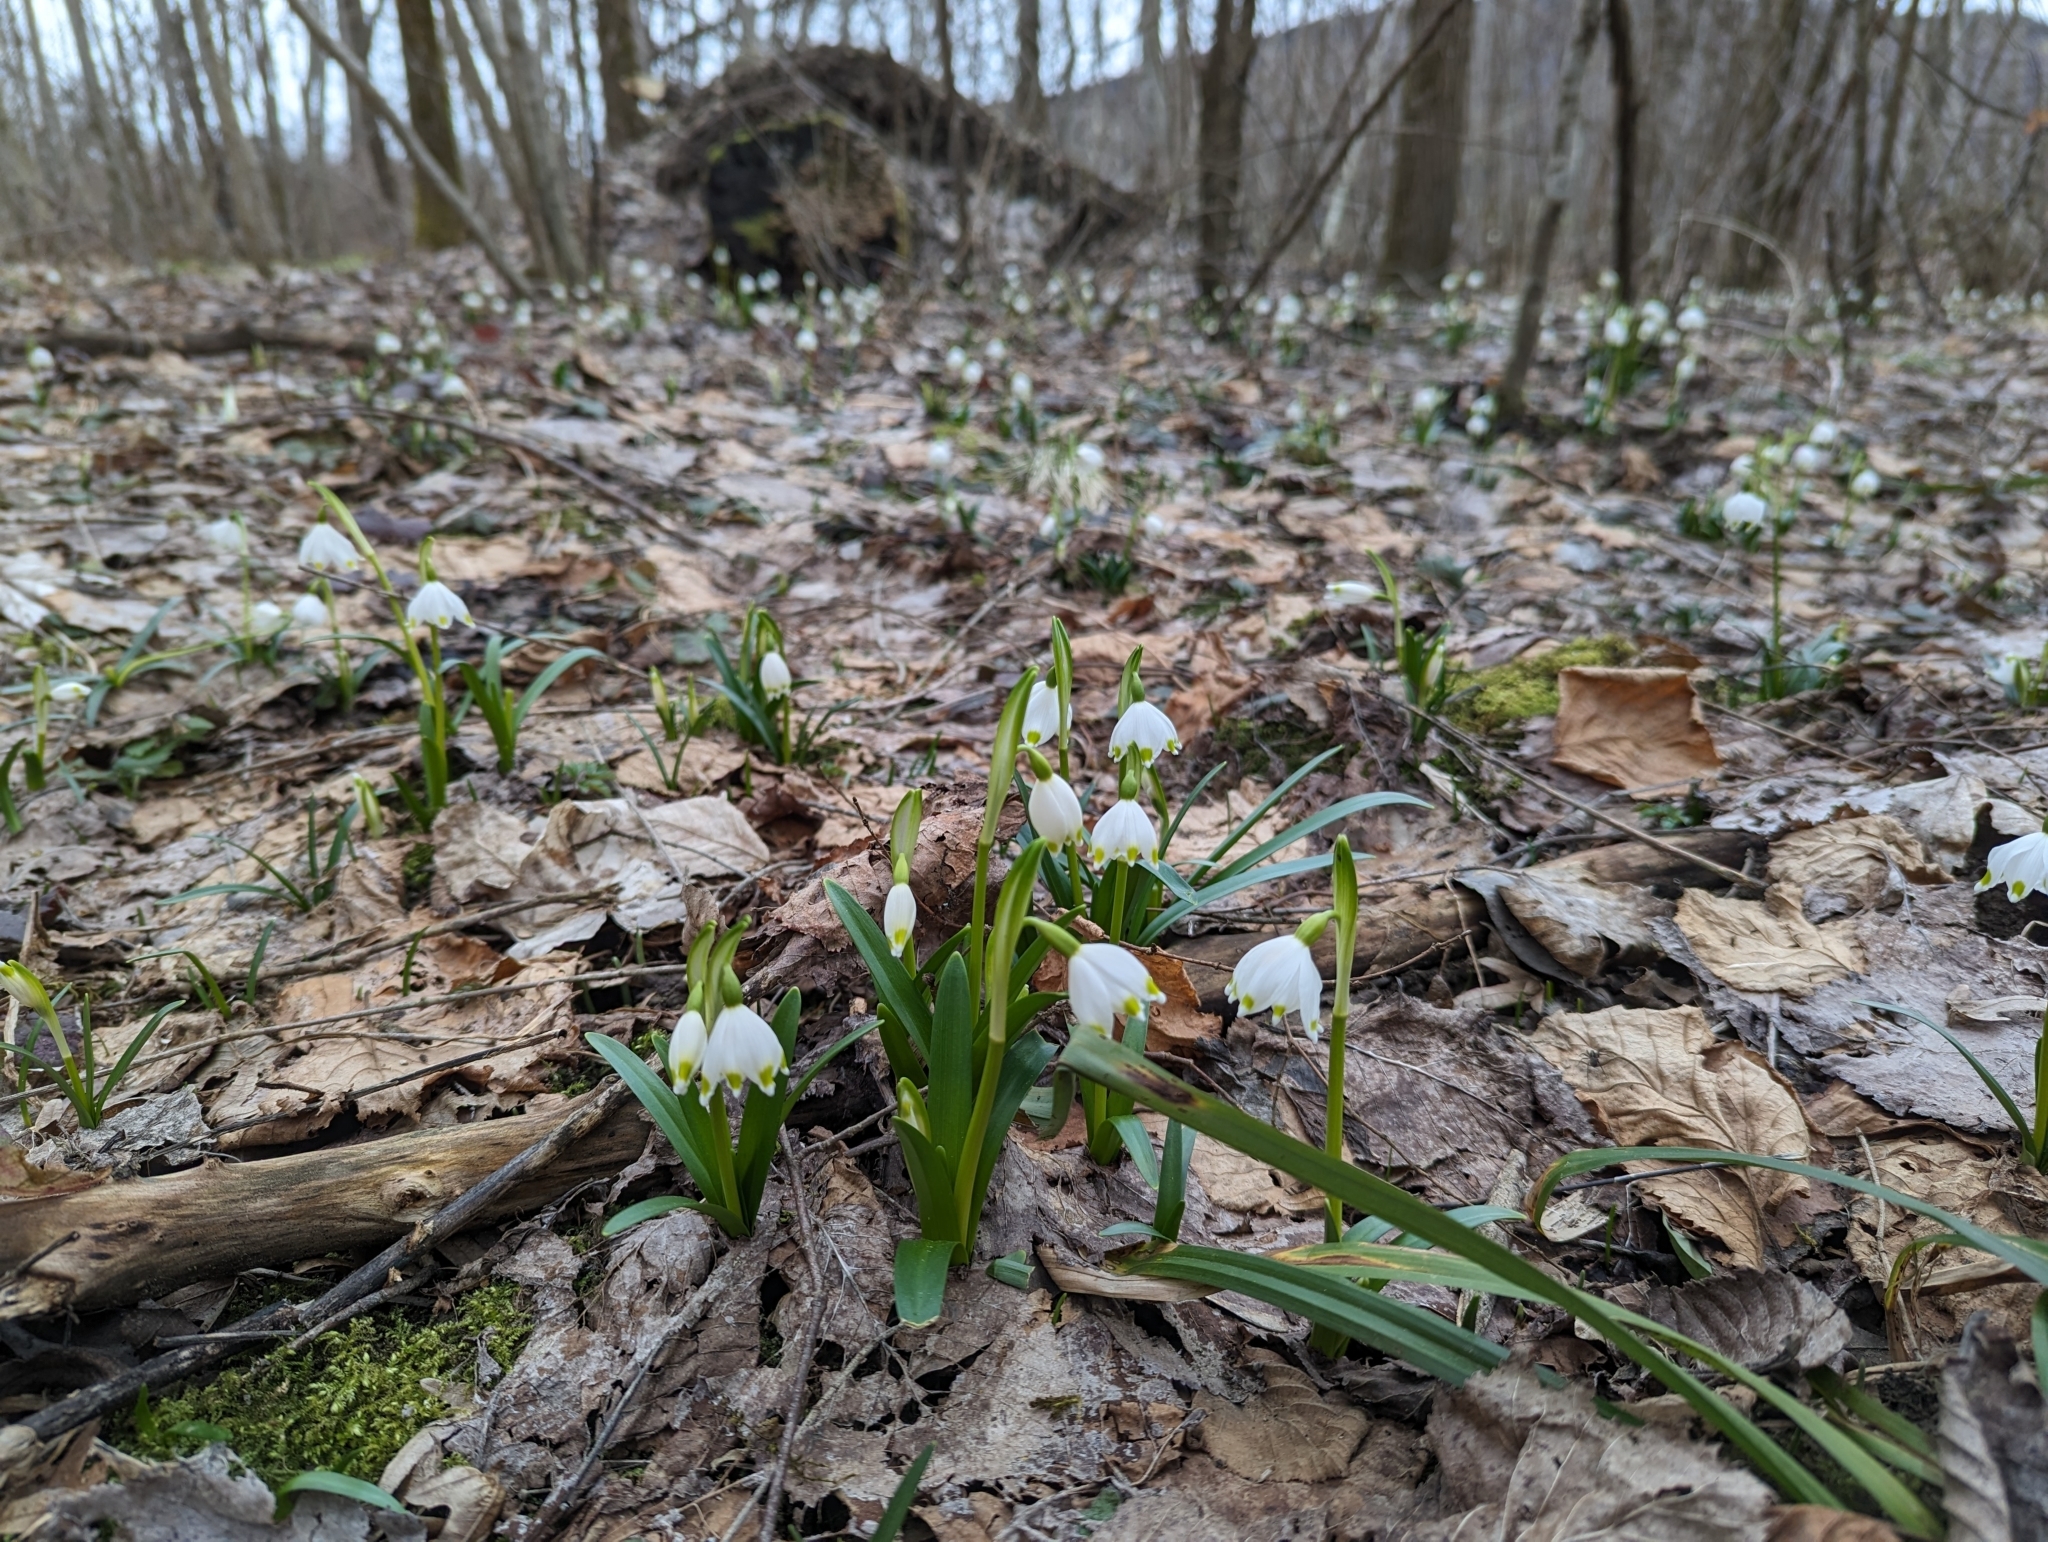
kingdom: Plantae
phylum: Tracheophyta
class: Liliopsida
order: Asparagales
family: Amaryllidaceae
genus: Leucojum
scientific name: Leucojum vernum
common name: Spring snowflake
